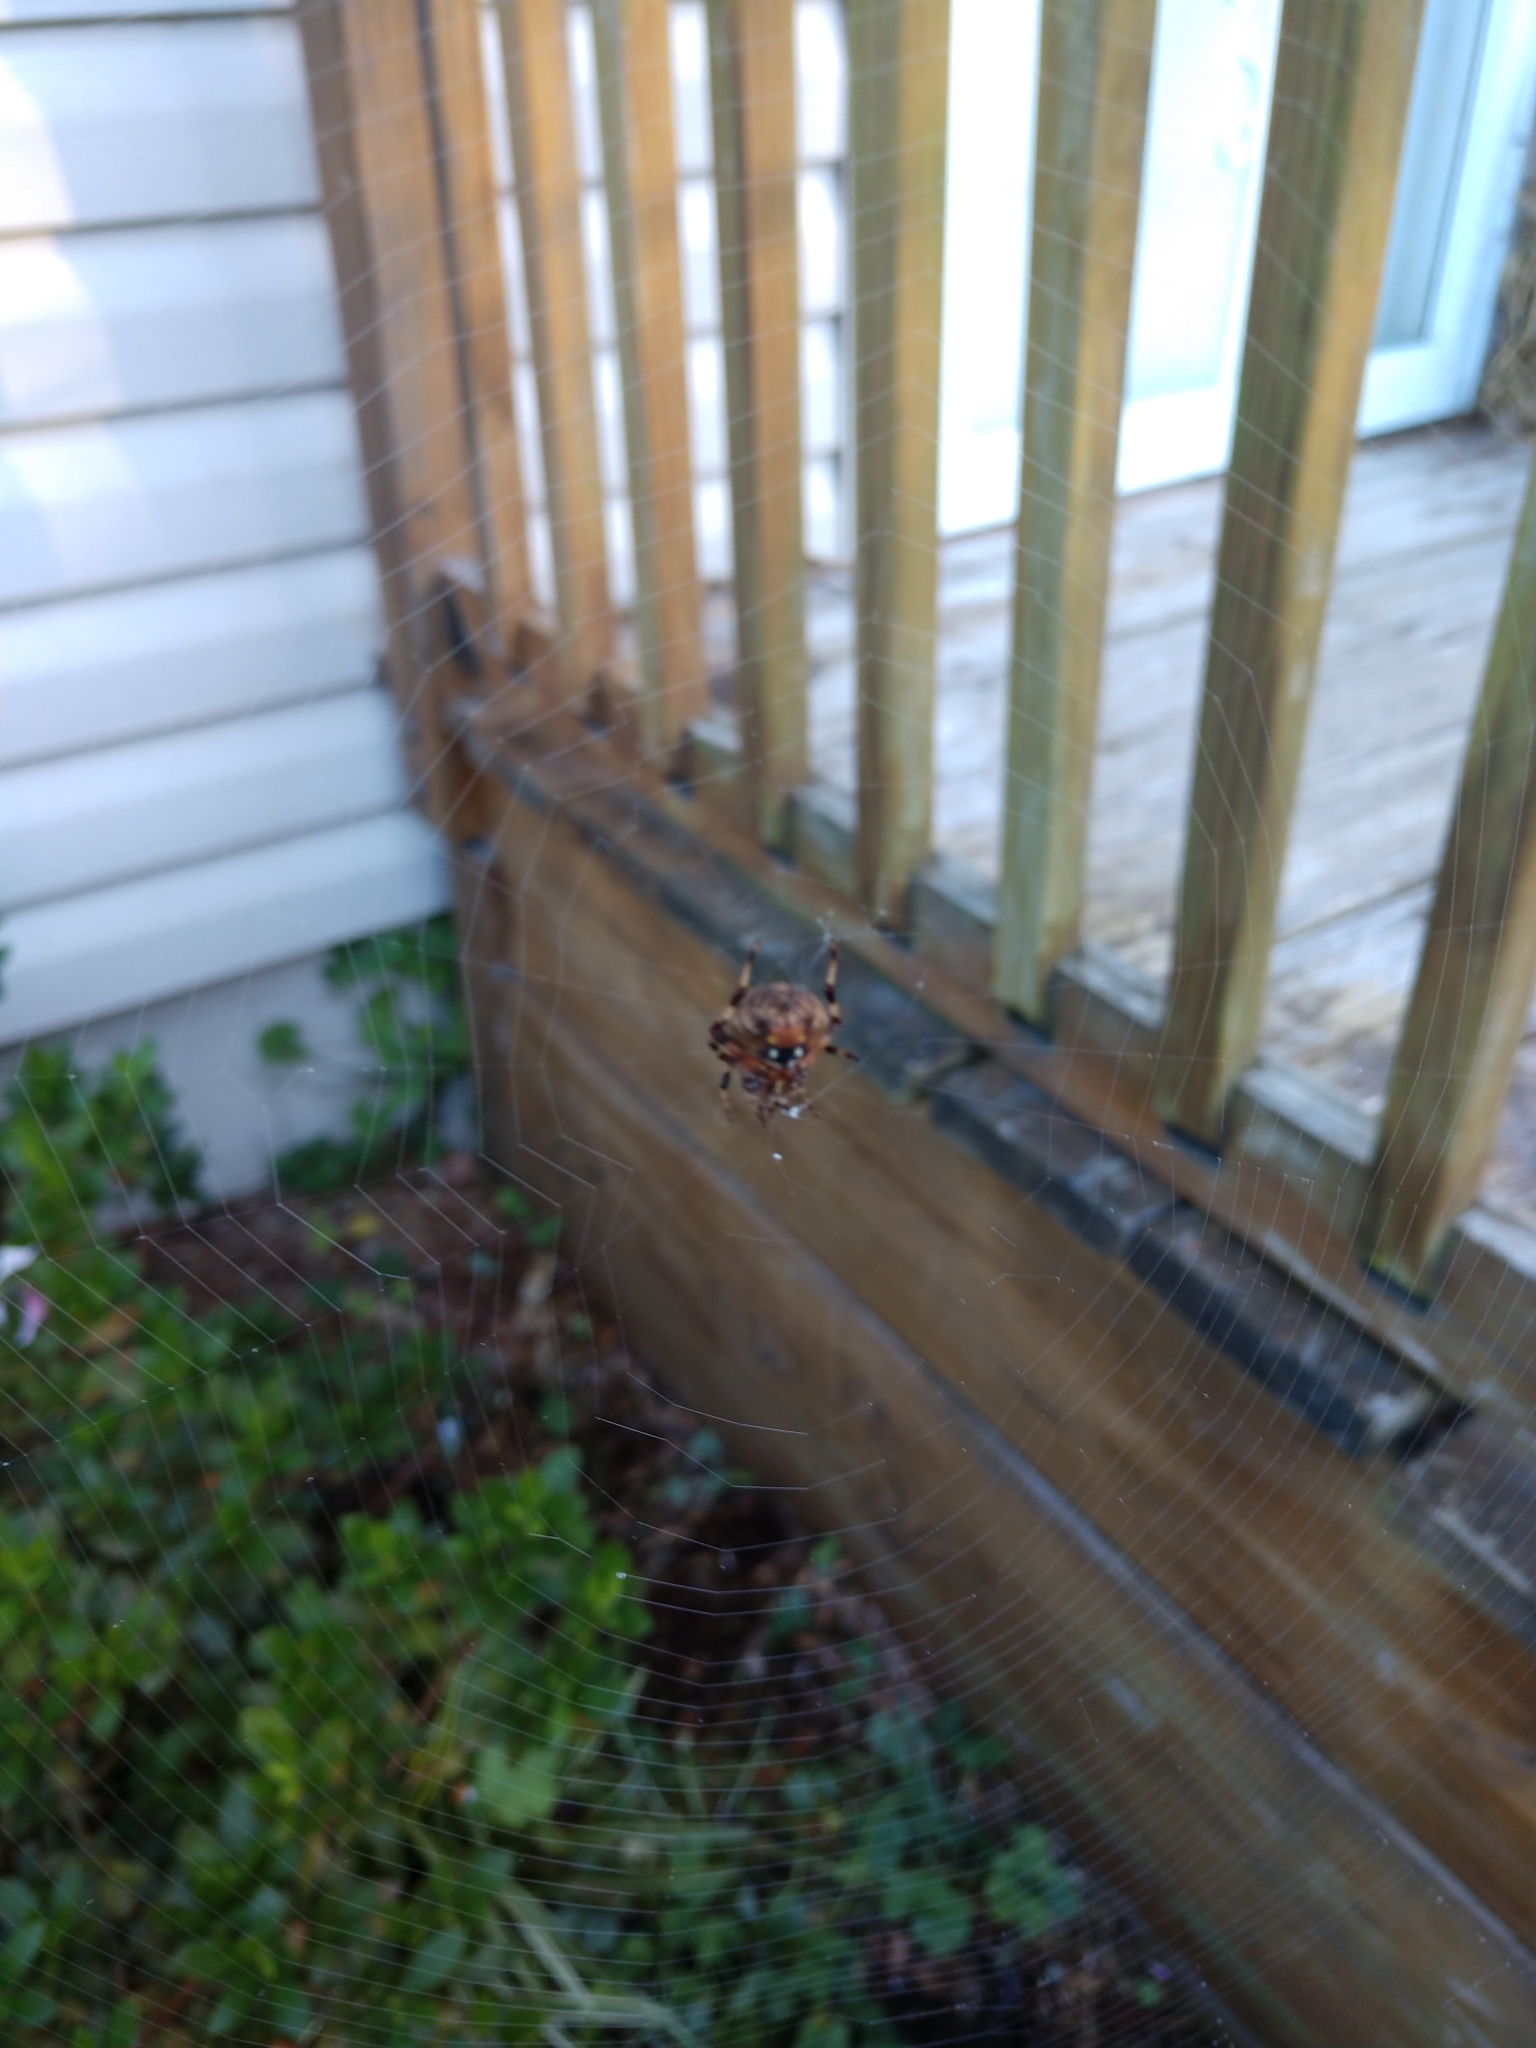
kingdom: Animalia
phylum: Arthropoda
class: Arachnida
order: Araneae
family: Araneidae
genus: Neoscona
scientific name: Neoscona crucifera
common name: Spotted orbweaver
